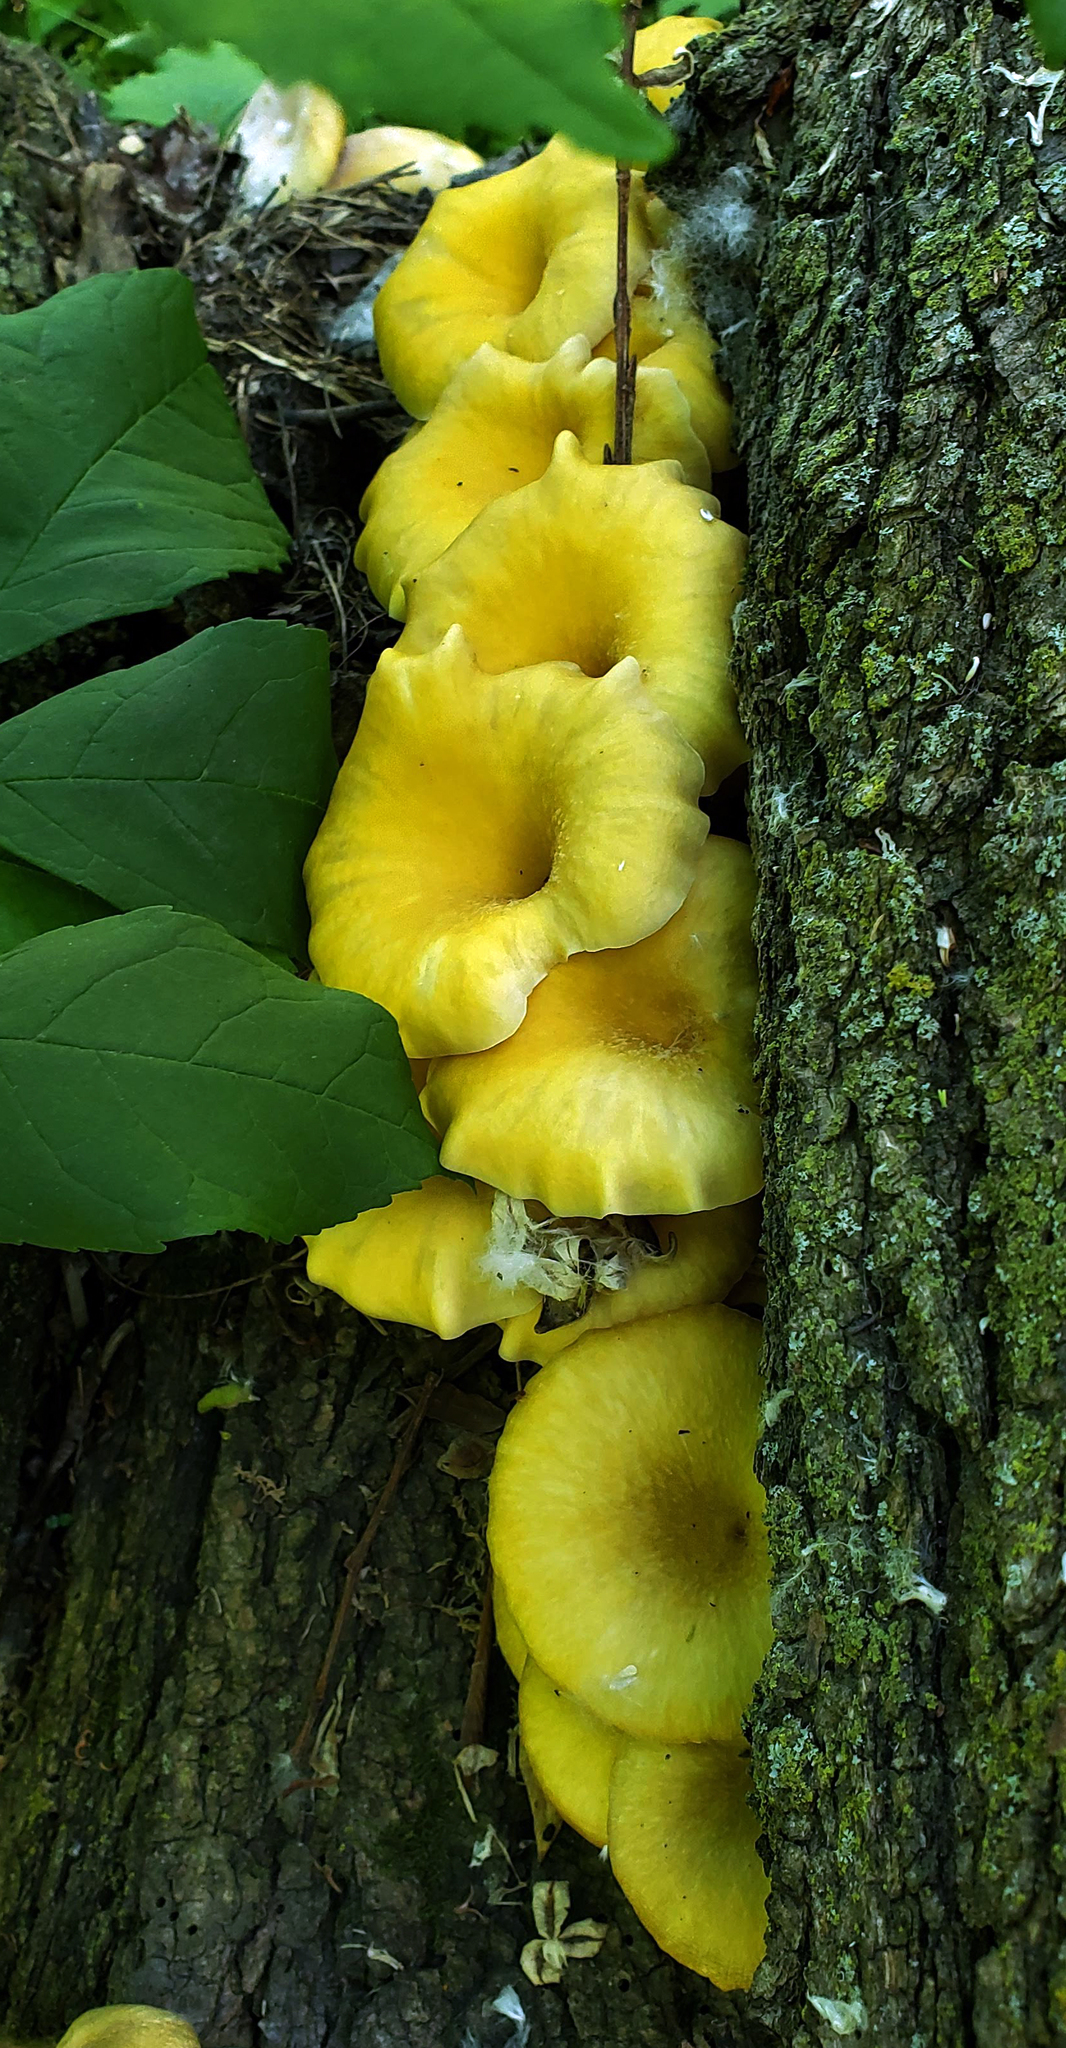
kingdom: Fungi
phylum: Basidiomycota
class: Agaricomycetes
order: Agaricales
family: Pleurotaceae
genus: Pleurotus
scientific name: Pleurotus citrinopileatus
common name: Golden oyster mushroom
